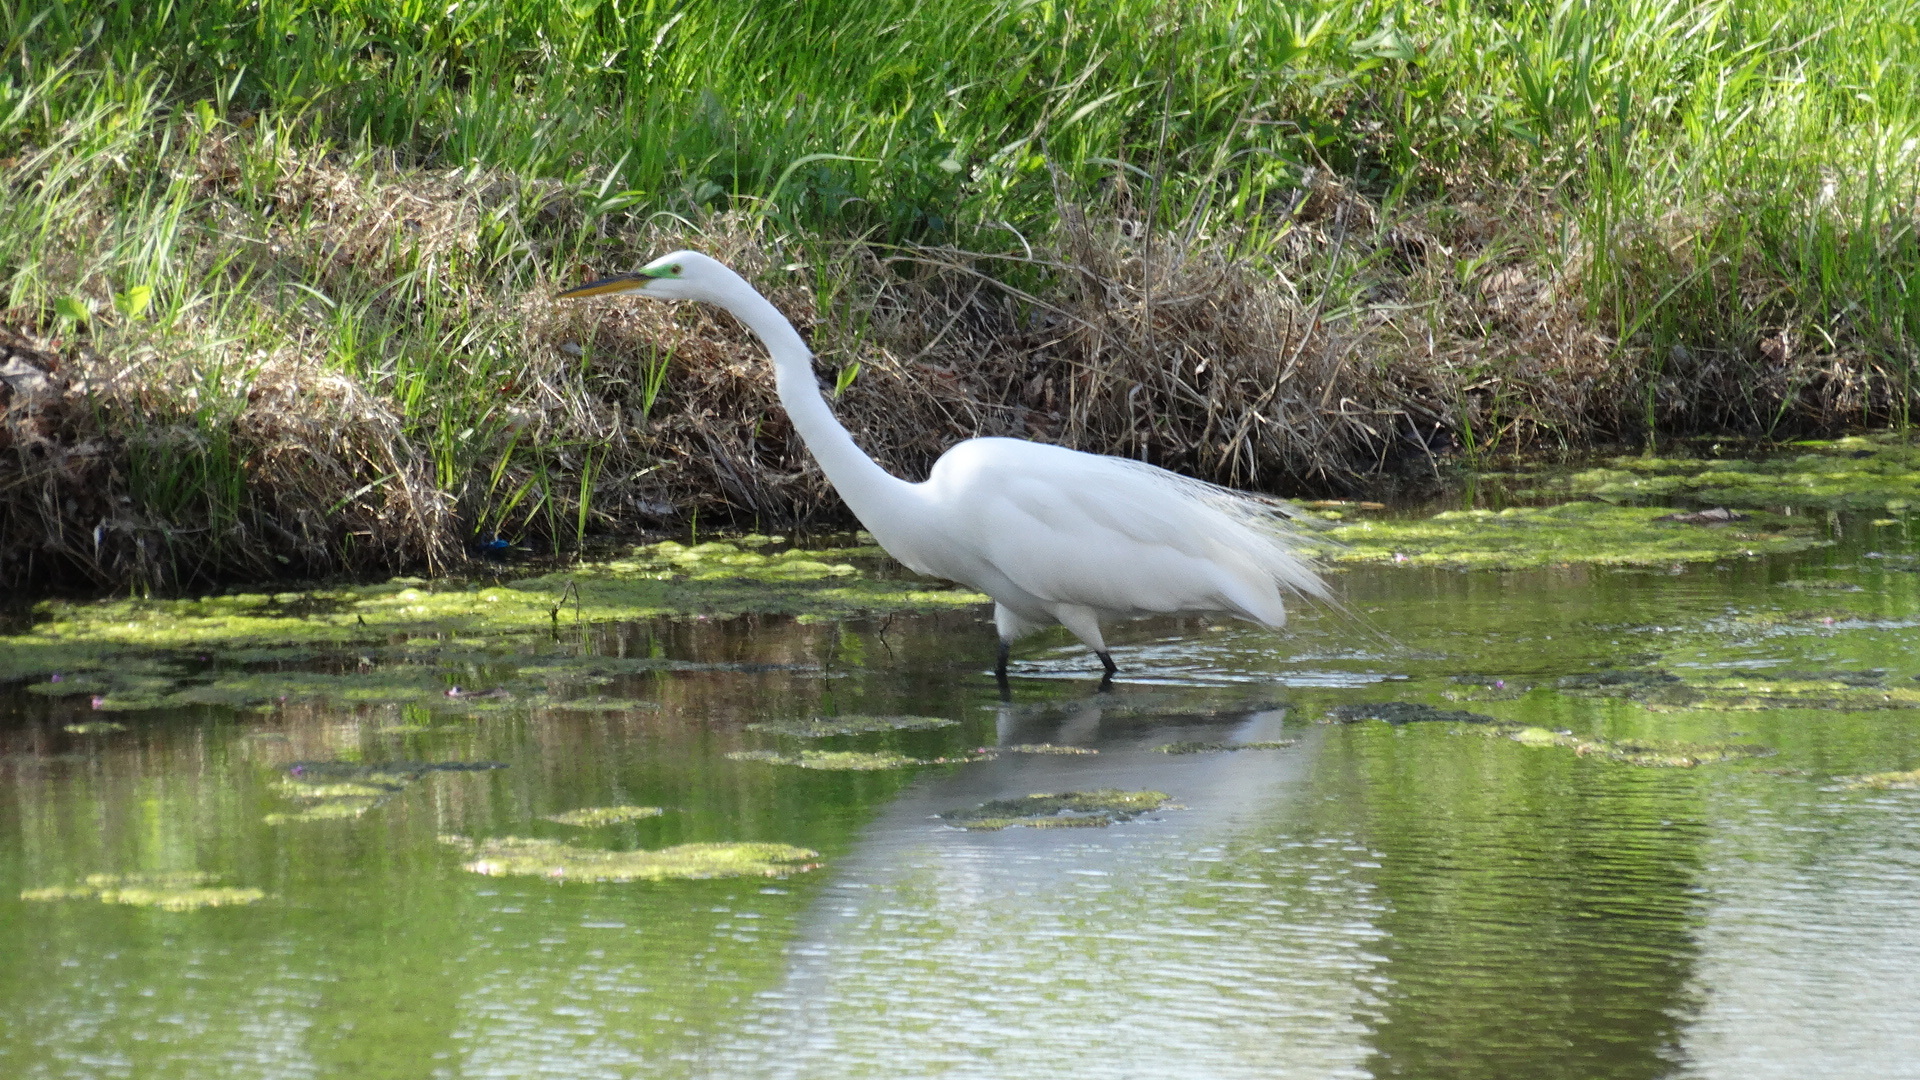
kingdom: Animalia
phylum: Chordata
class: Aves
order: Pelecaniformes
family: Ardeidae
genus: Ardea
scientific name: Ardea alba
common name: Great egret
